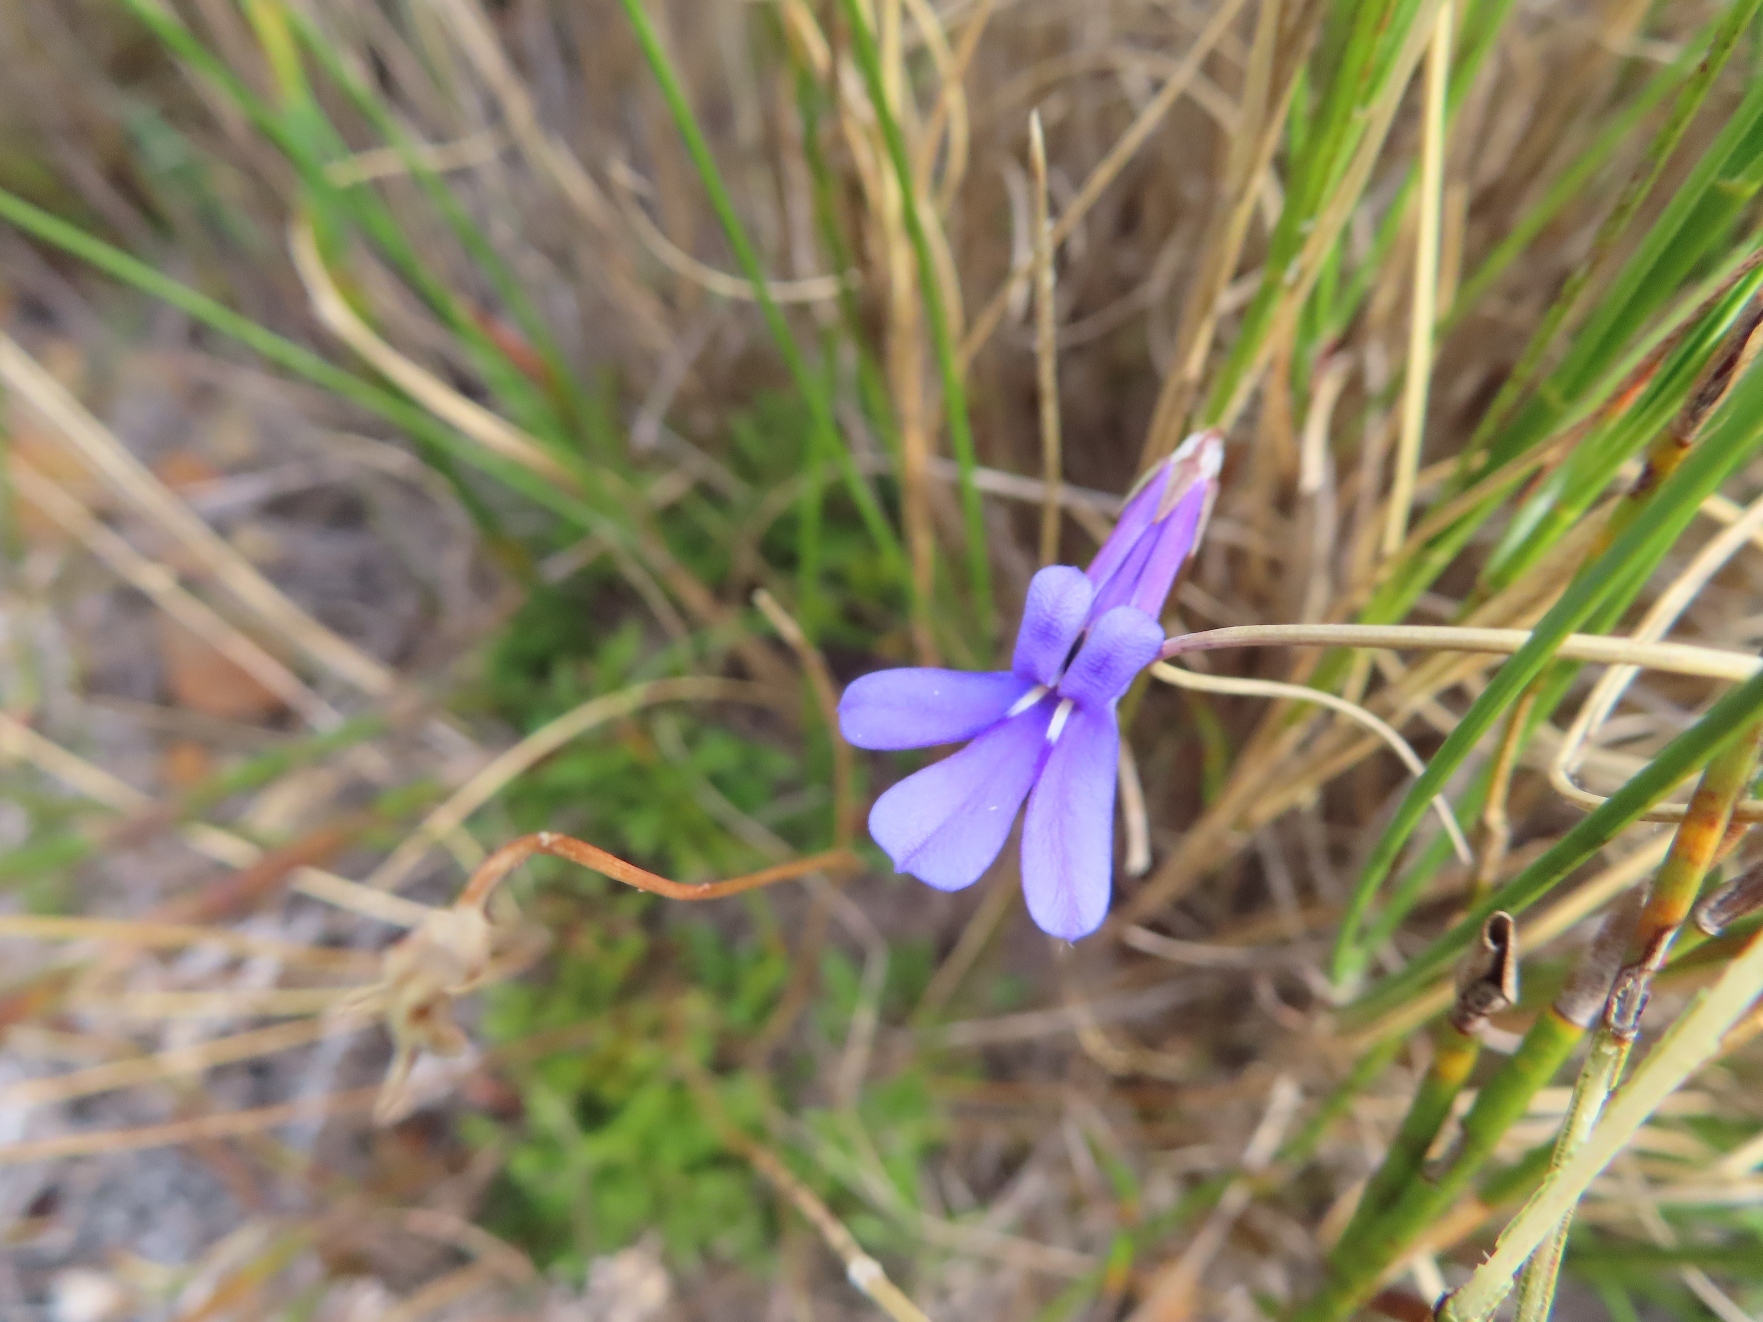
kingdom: Plantae
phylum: Tracheophyta
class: Magnoliopsida
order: Asterales
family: Campanulaceae
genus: Lobelia
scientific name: Lobelia coronopifolia
